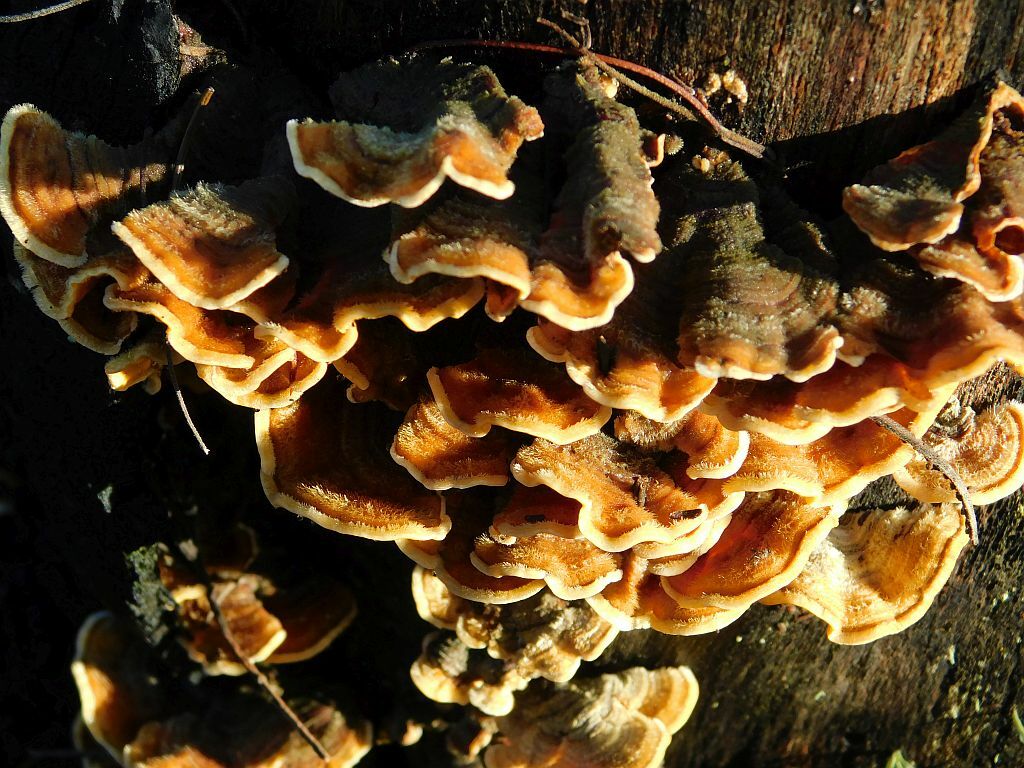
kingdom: Fungi
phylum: Basidiomycota
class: Agaricomycetes
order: Russulales
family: Stereaceae
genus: Stereum
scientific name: Stereum hirsutum
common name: Hairy curtain crust
